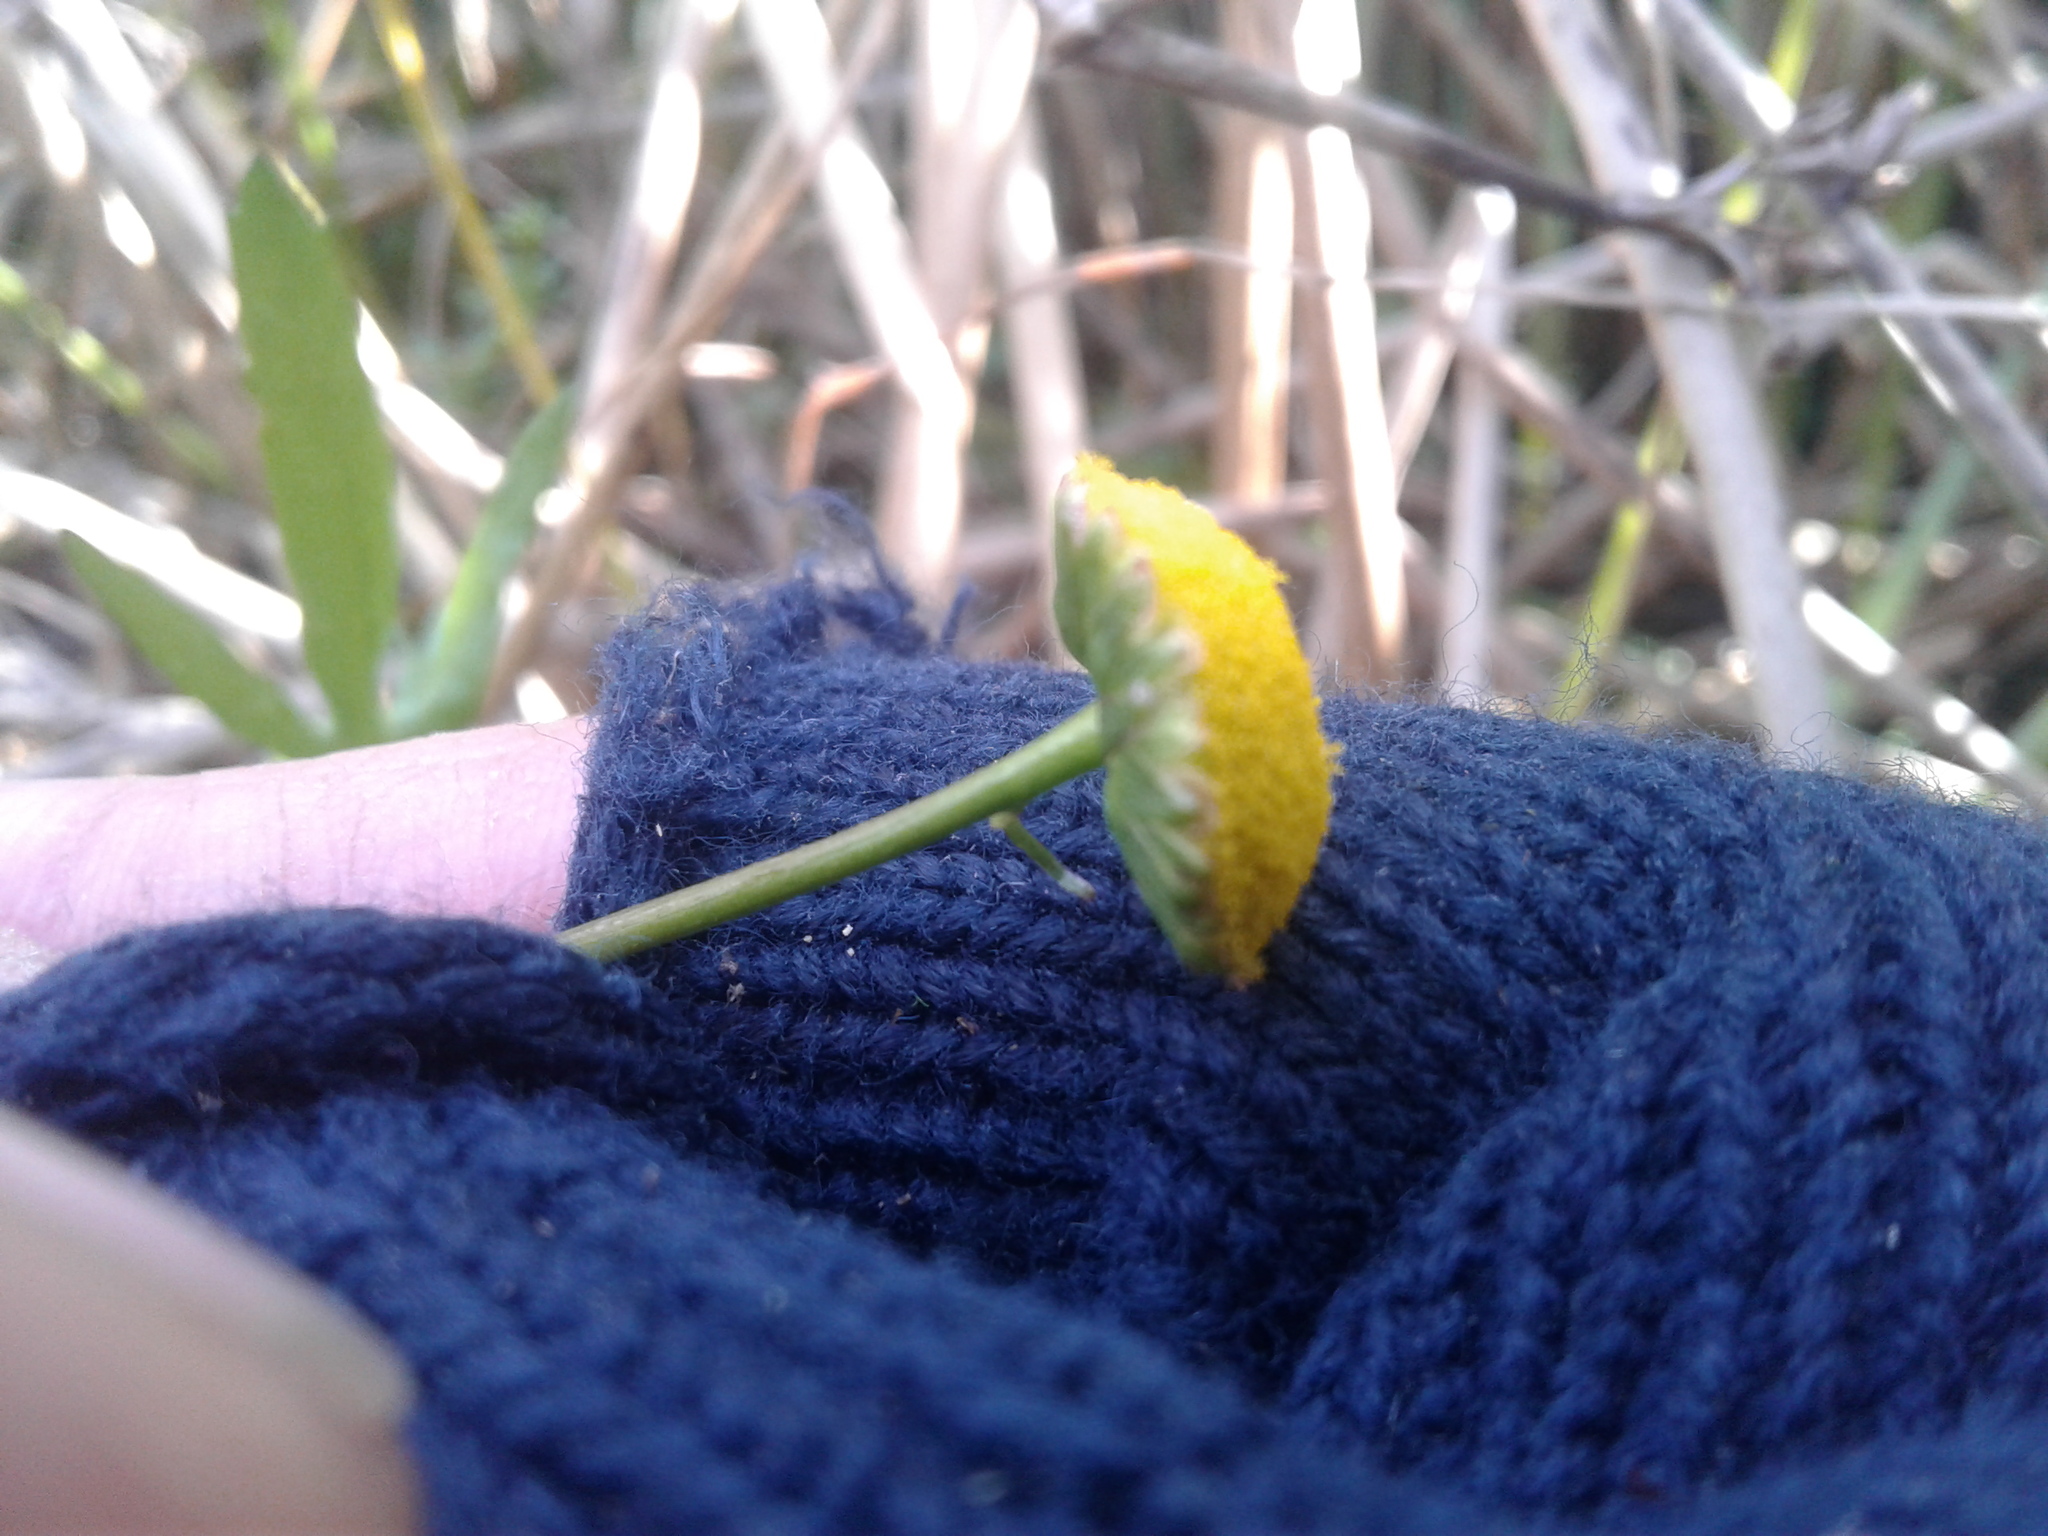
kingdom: Plantae
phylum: Tracheophyta
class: Magnoliopsida
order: Asterales
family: Asteraceae
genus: Cotula
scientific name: Cotula coronopifolia
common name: Buttonweed
